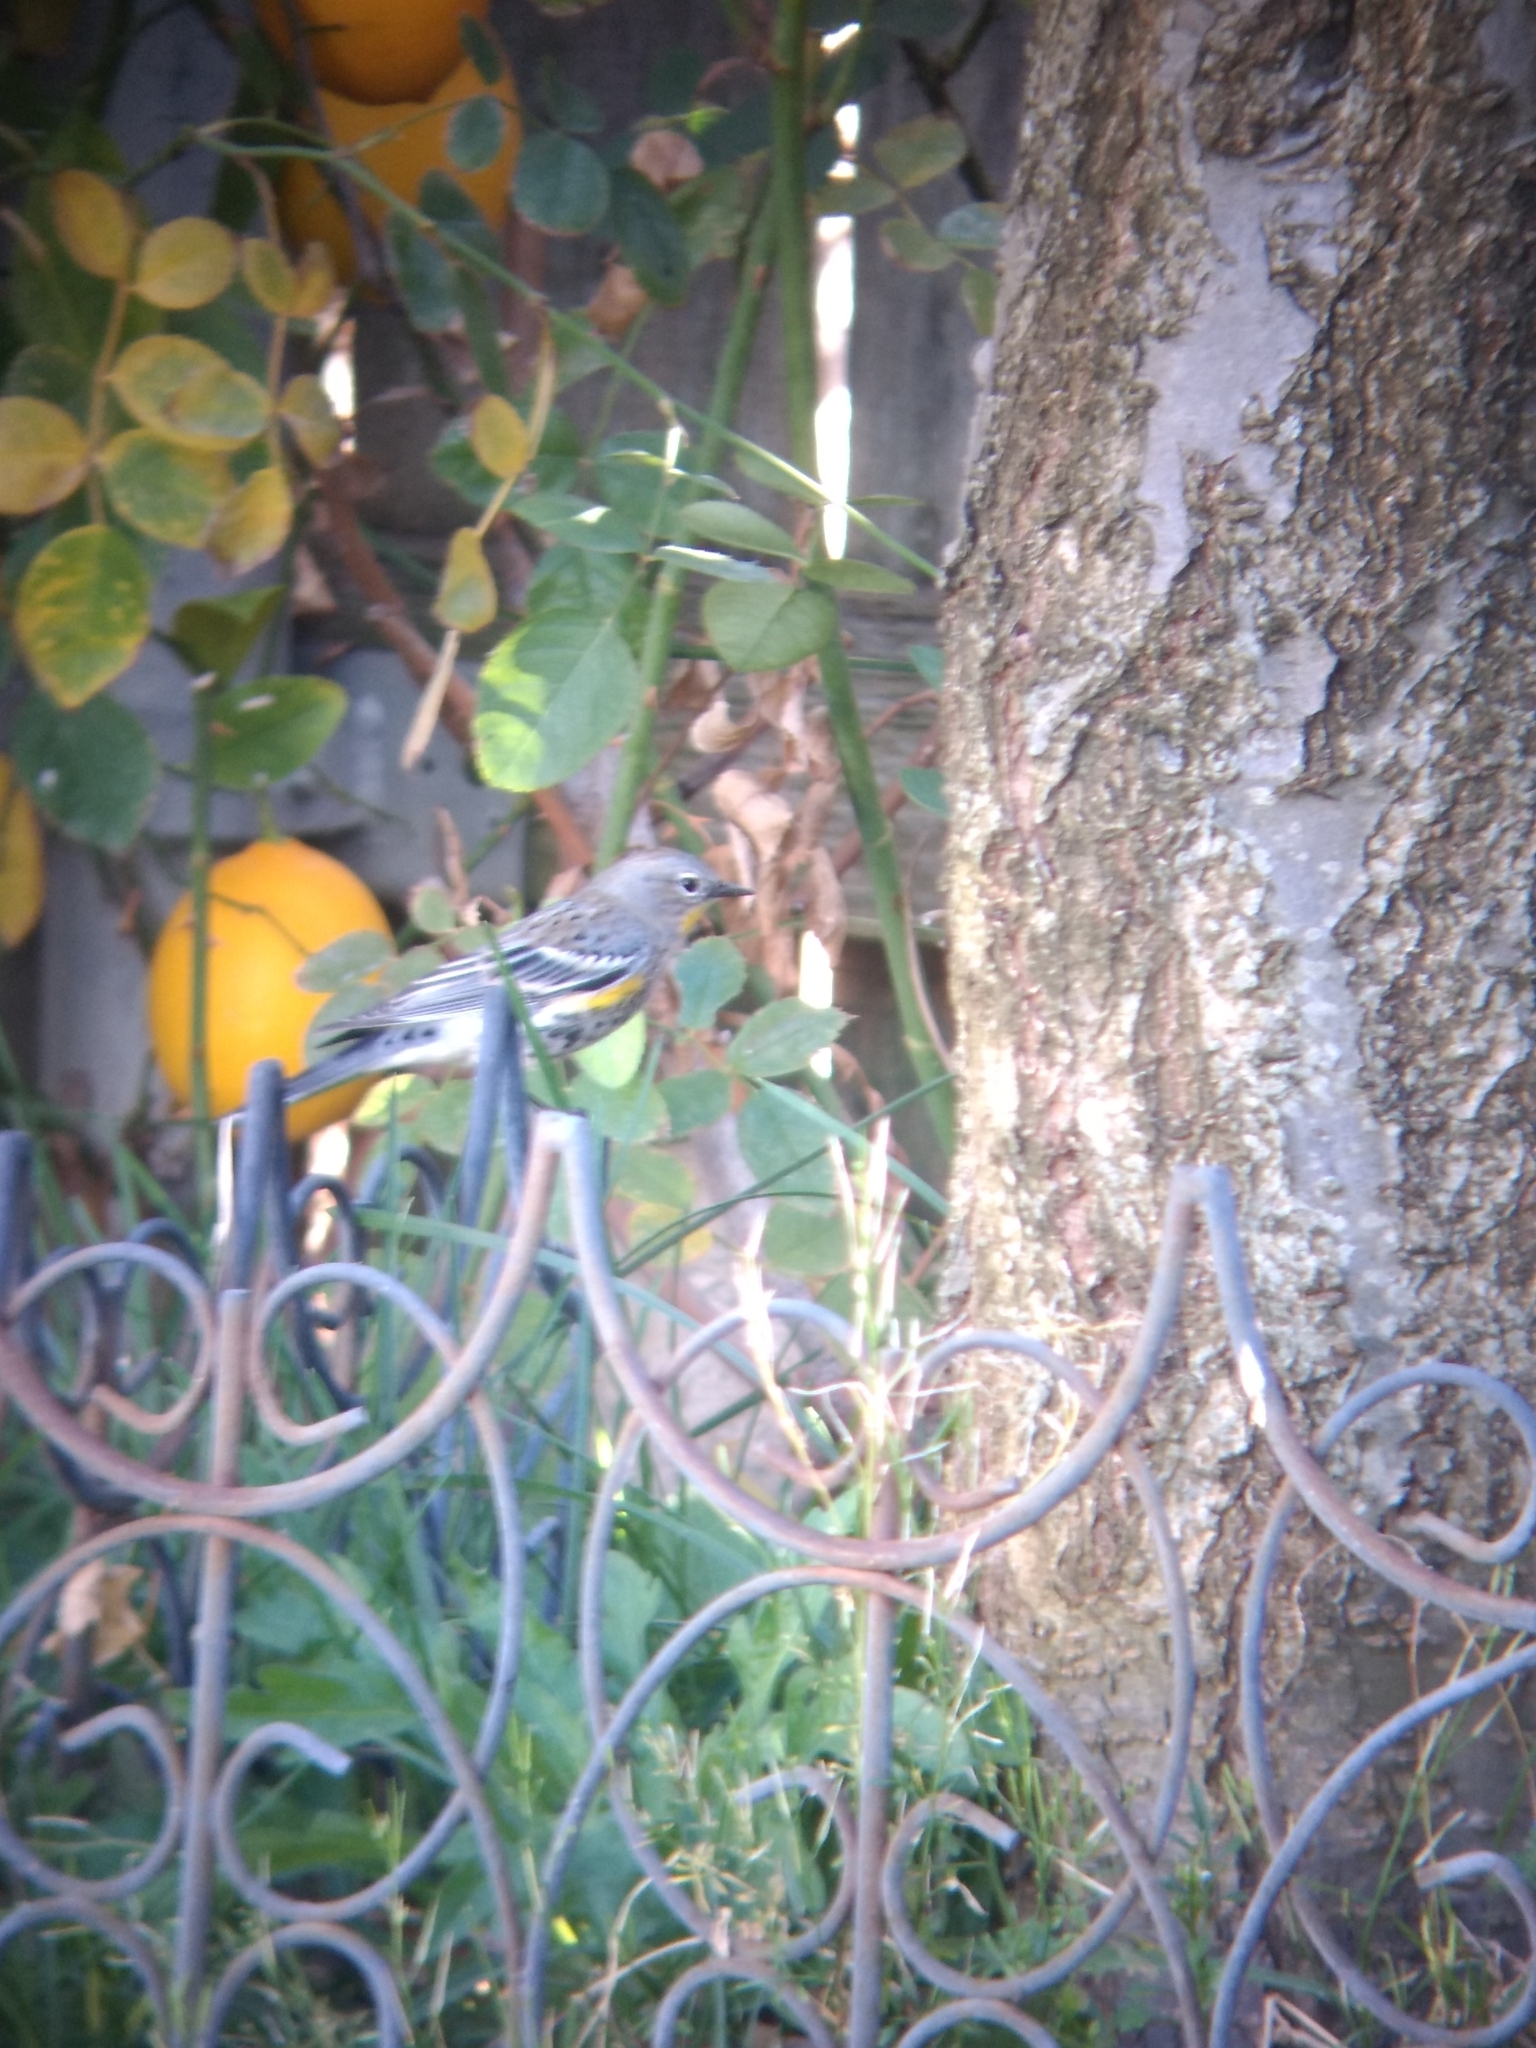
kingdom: Animalia
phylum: Chordata
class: Aves
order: Passeriformes
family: Parulidae
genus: Setophaga
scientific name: Setophaga coronata
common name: Myrtle warbler
